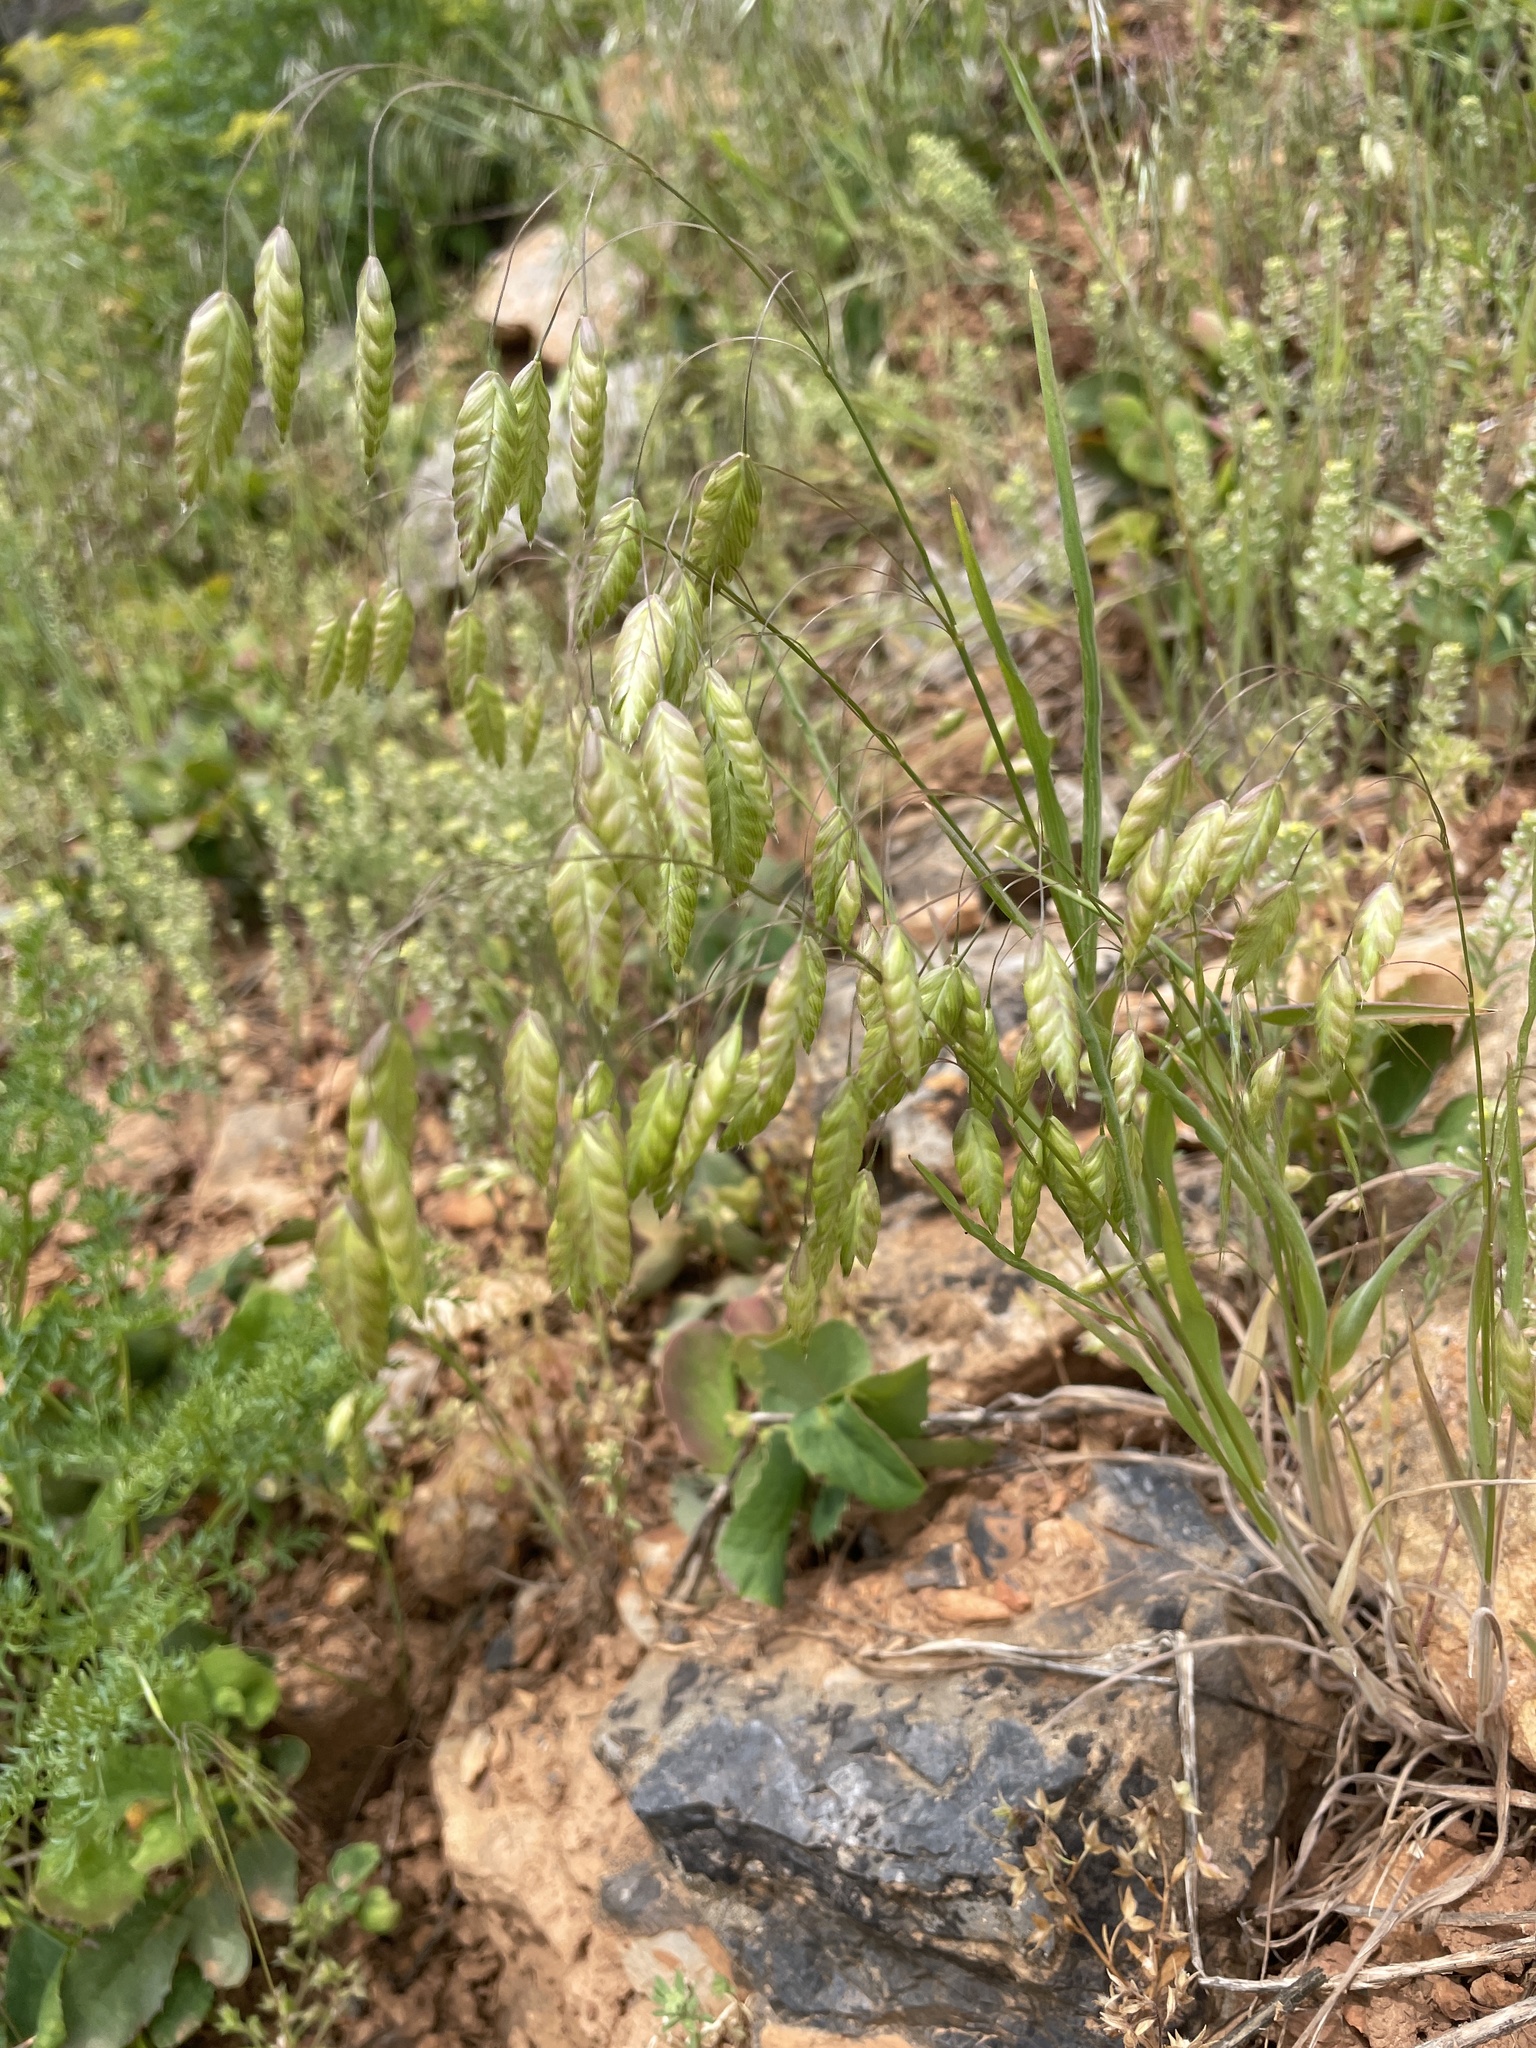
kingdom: Plantae
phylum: Tracheophyta
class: Liliopsida
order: Poales
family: Poaceae
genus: Bromus
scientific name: Bromus briziformis
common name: Rattlesnake brome
